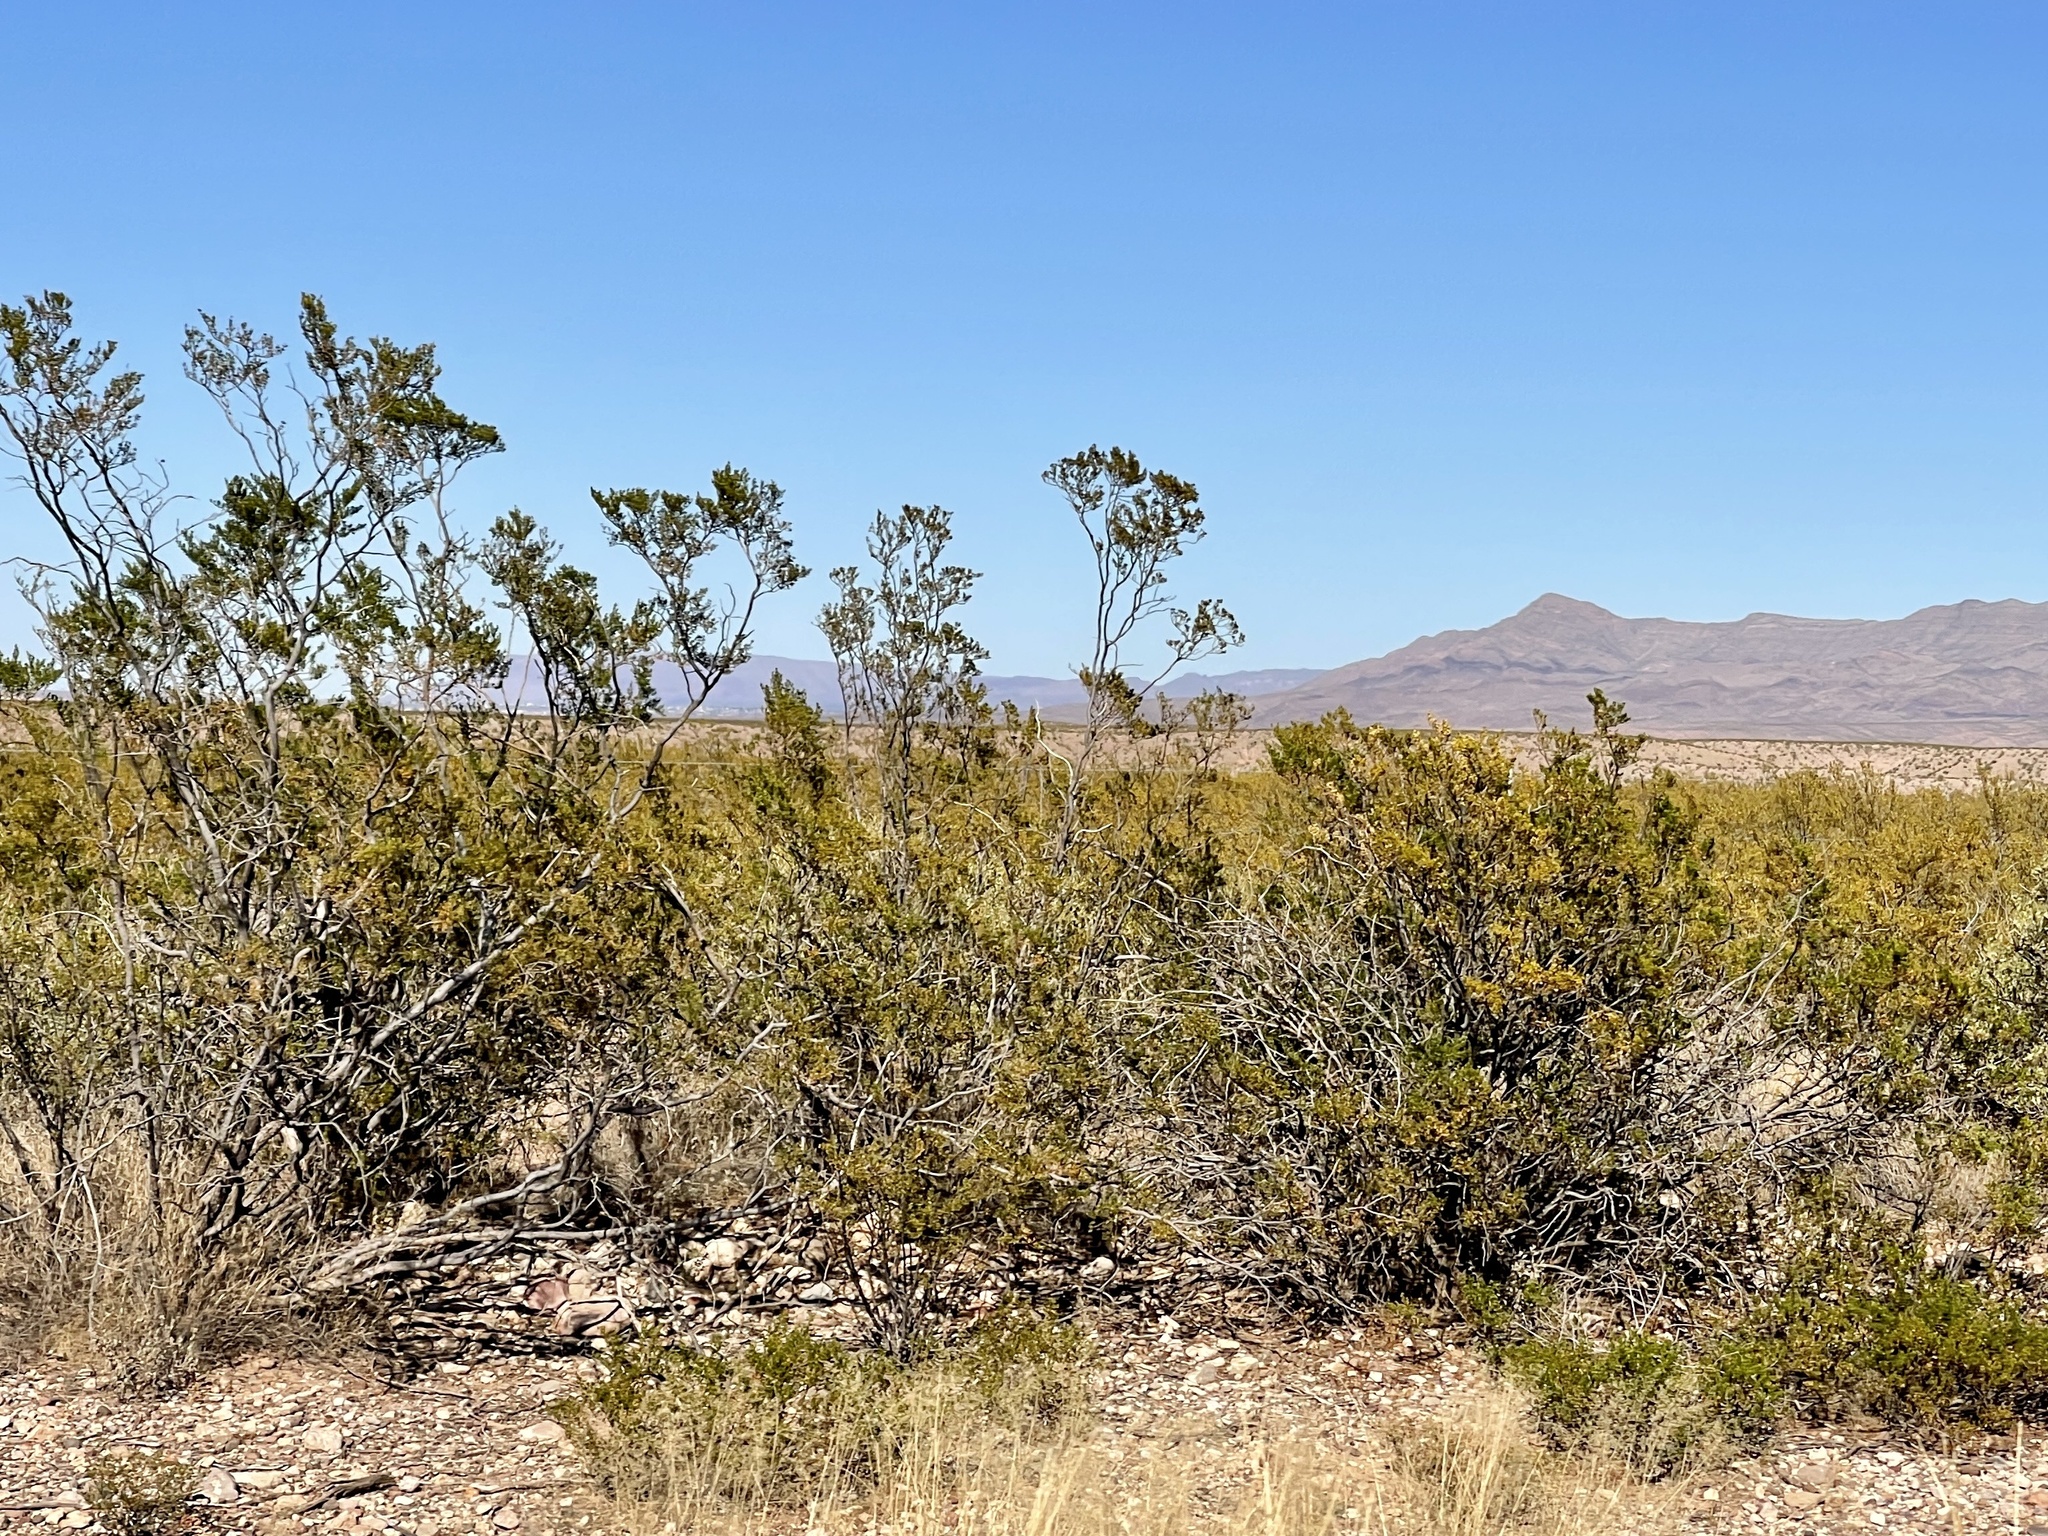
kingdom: Plantae
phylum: Tracheophyta
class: Magnoliopsida
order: Zygophyllales
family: Zygophyllaceae
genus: Larrea
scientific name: Larrea tridentata
